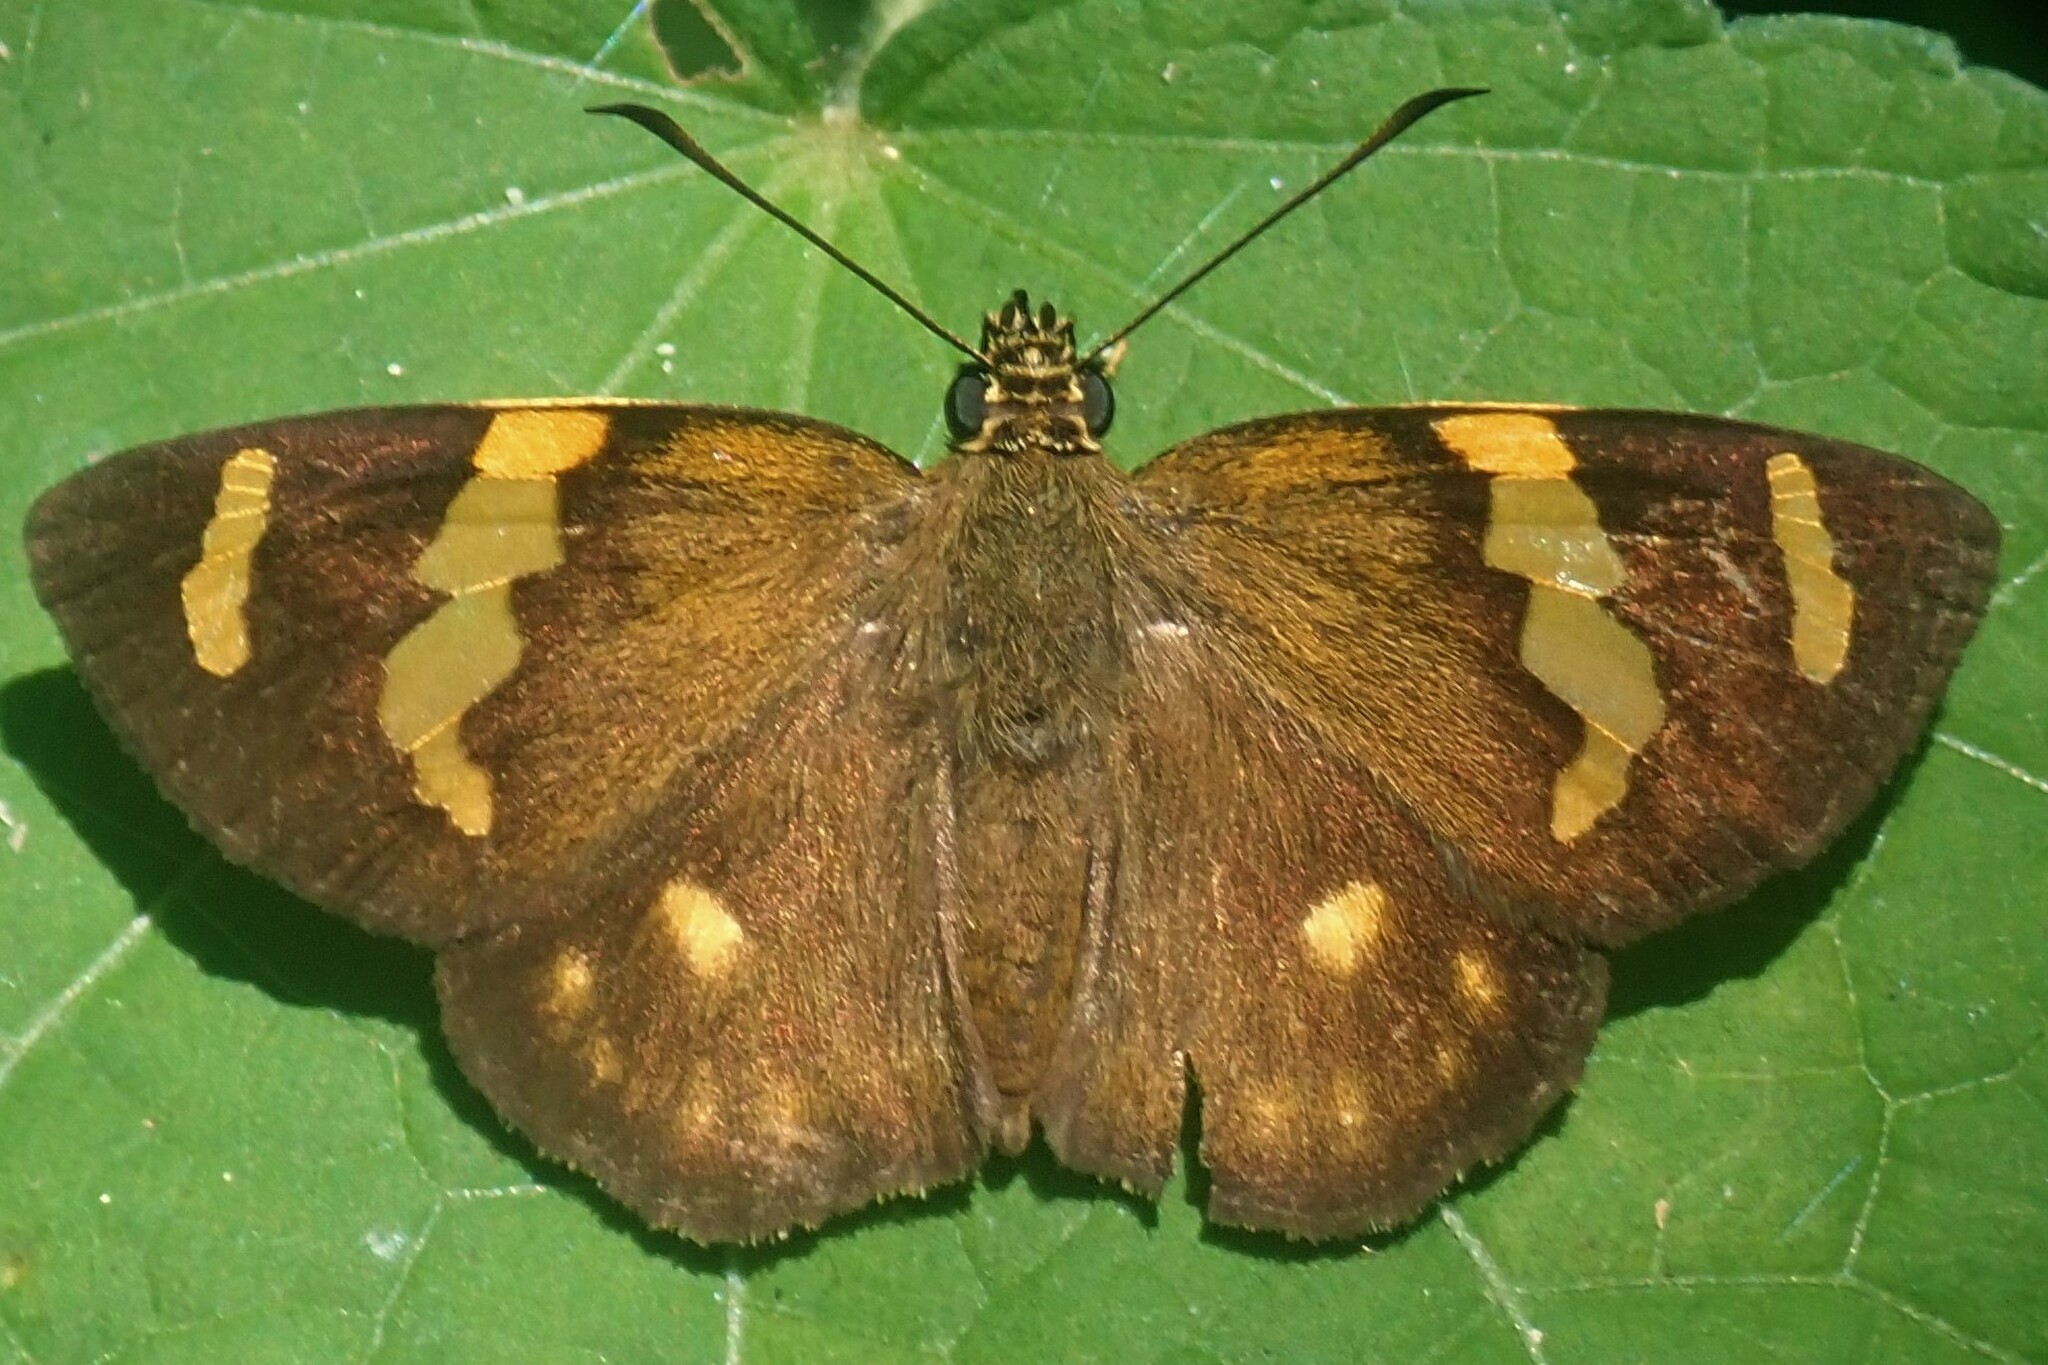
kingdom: Animalia
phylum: Arthropoda
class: Insecta
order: Lepidoptera
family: Hesperiidae
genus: Celaenorrhinus
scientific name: Celaenorrhinus mokeezi
